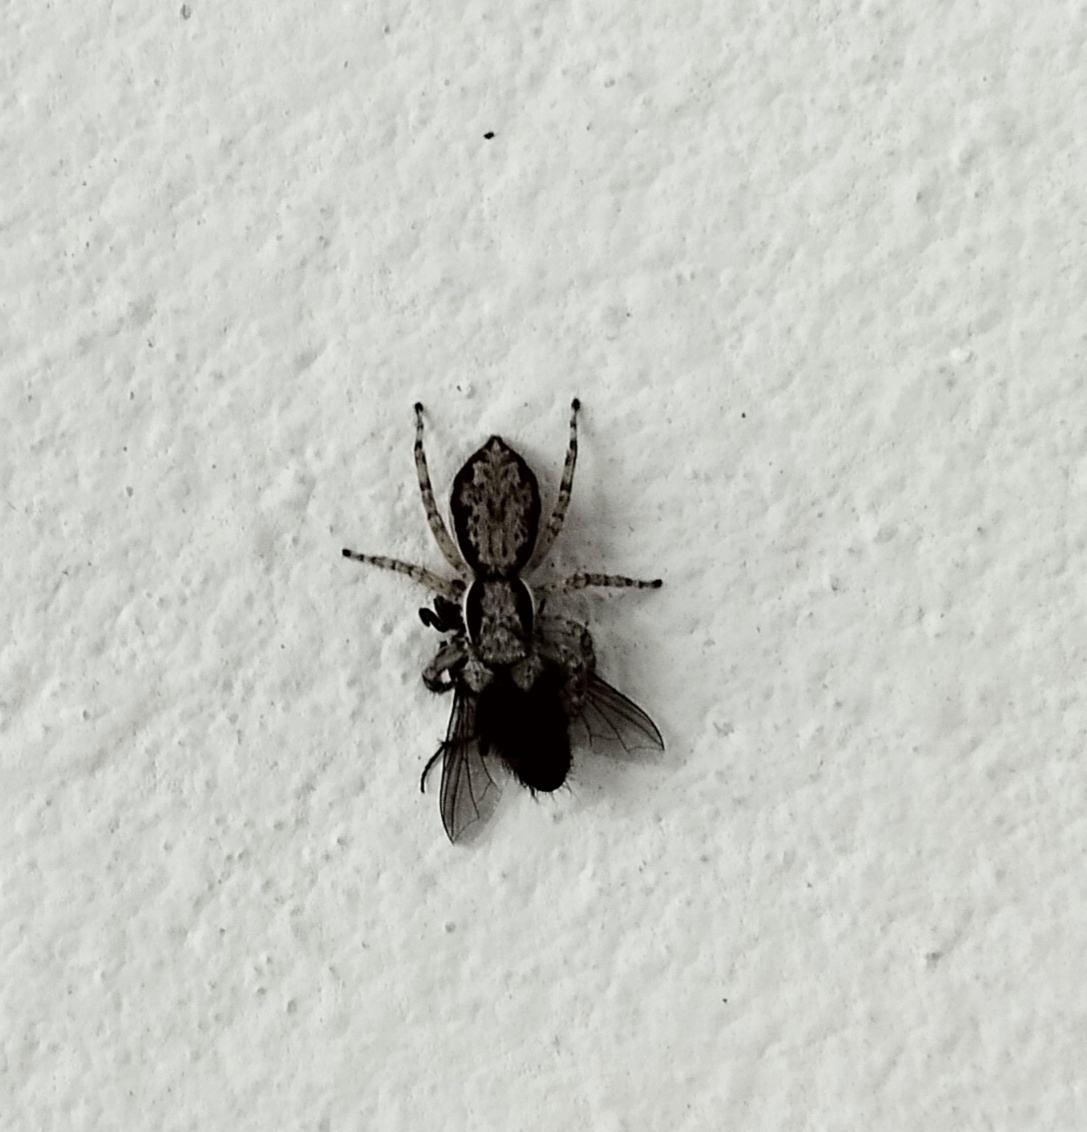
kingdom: Animalia
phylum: Arthropoda
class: Arachnida
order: Araneae
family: Salticidae
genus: Menemerus
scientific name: Menemerus bivittatus
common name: Gray wall jumper
